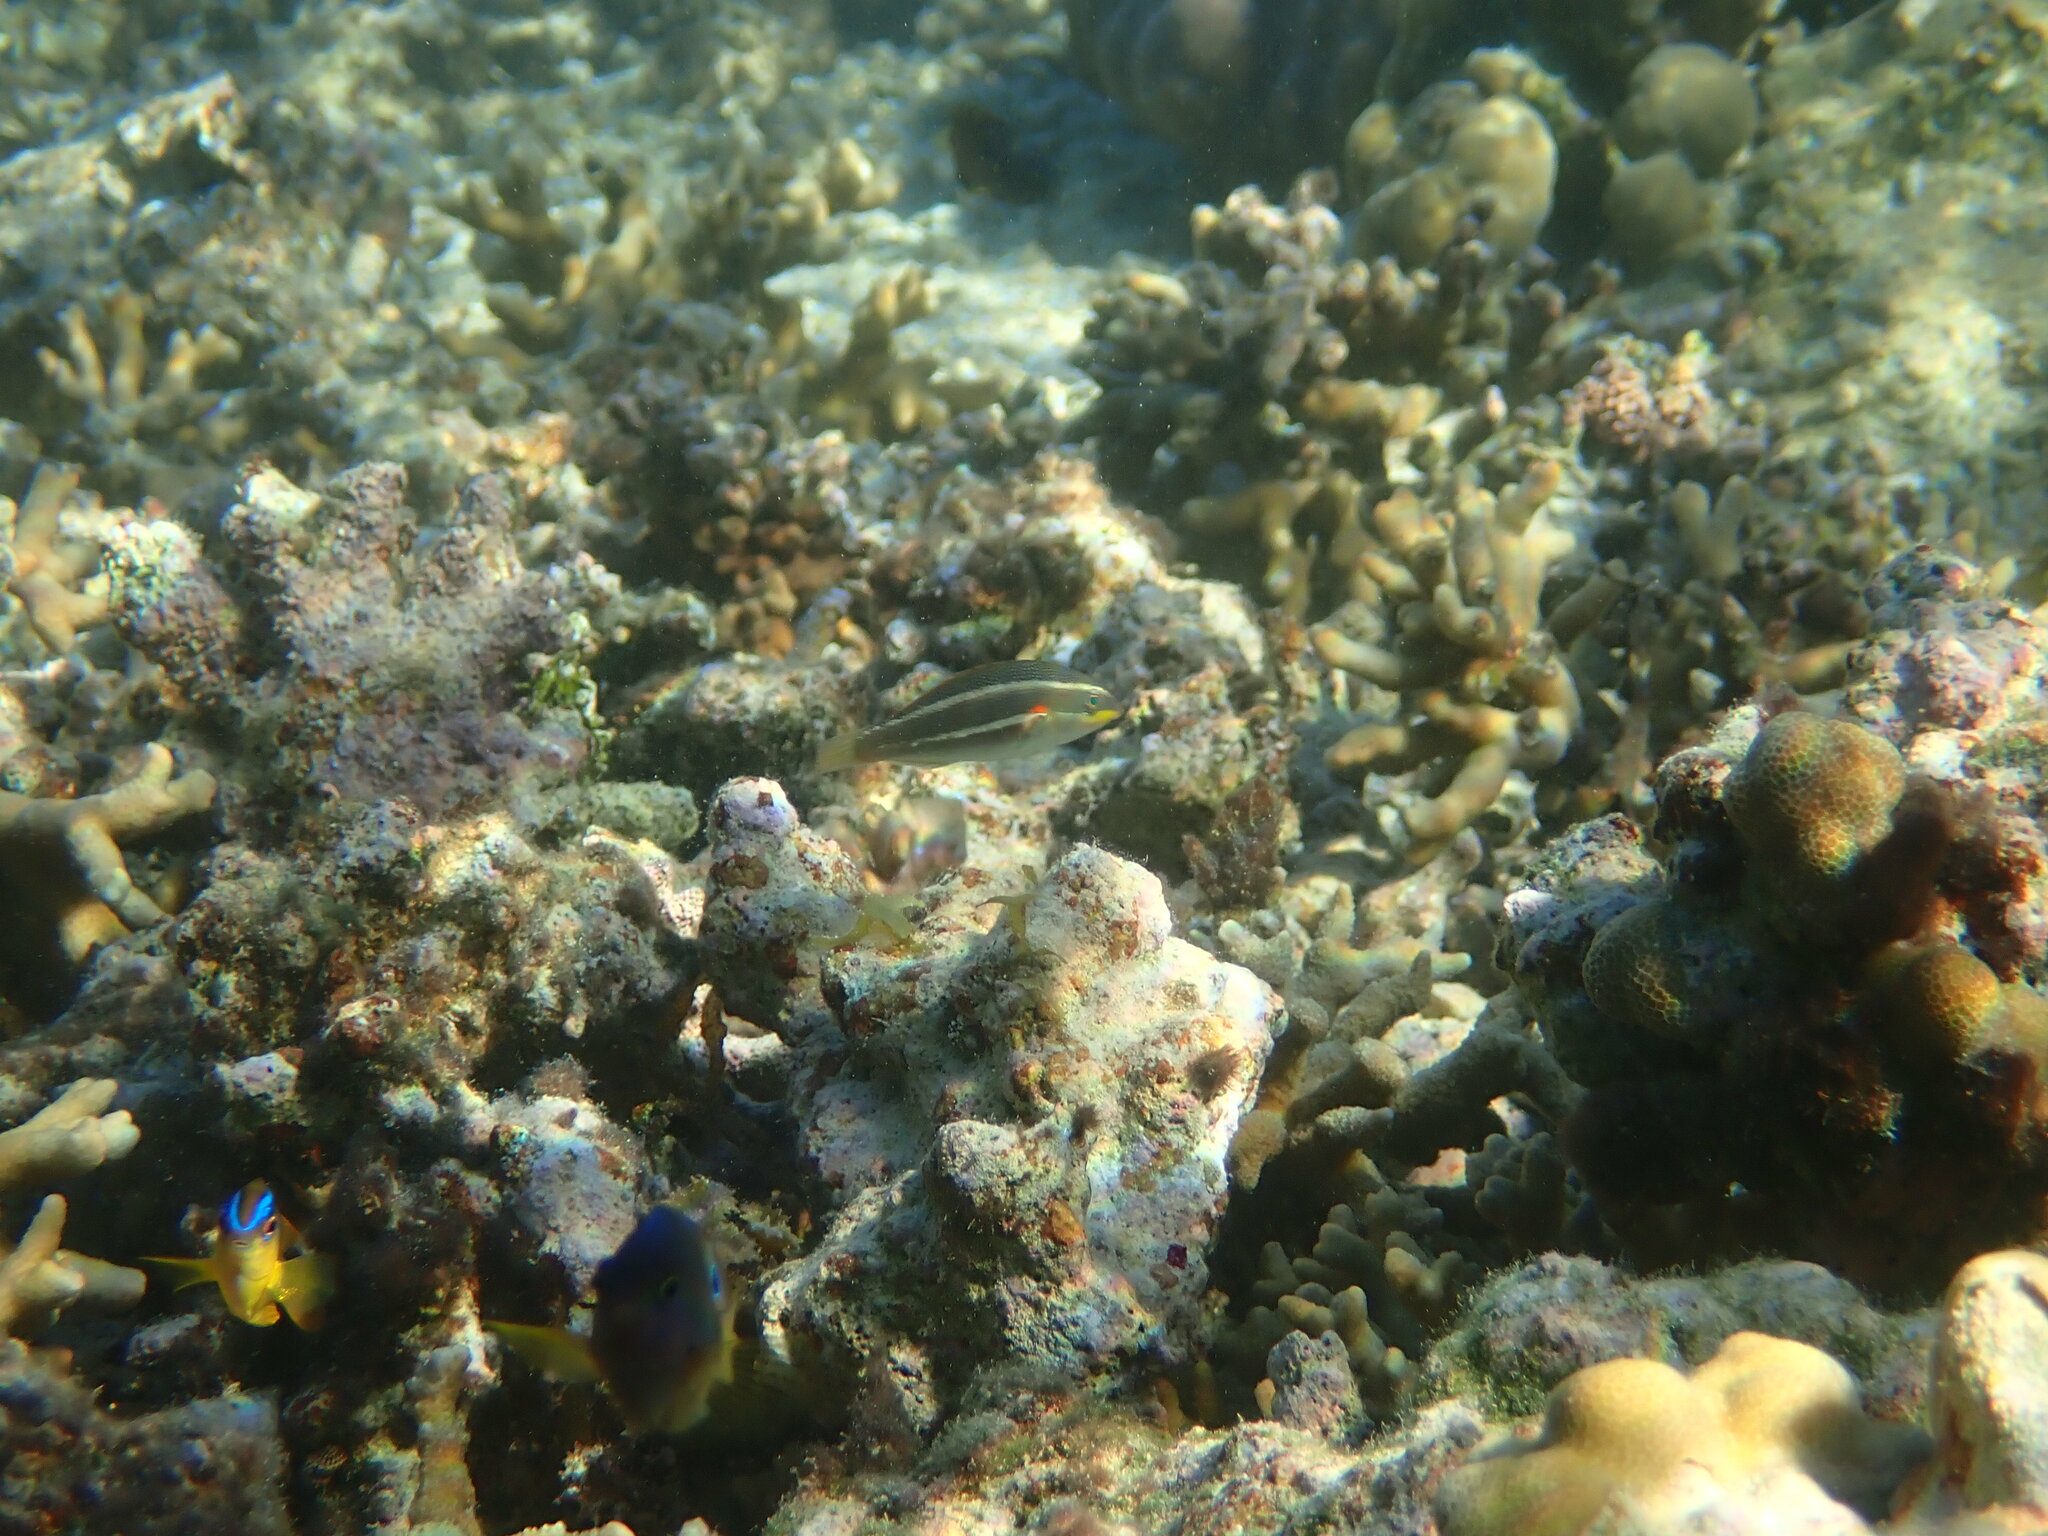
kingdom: Animalia
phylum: Chordata
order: Perciformes
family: Labridae
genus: Stethojulis
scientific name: Stethojulis bandanensis
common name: Red shoulder wrasse
